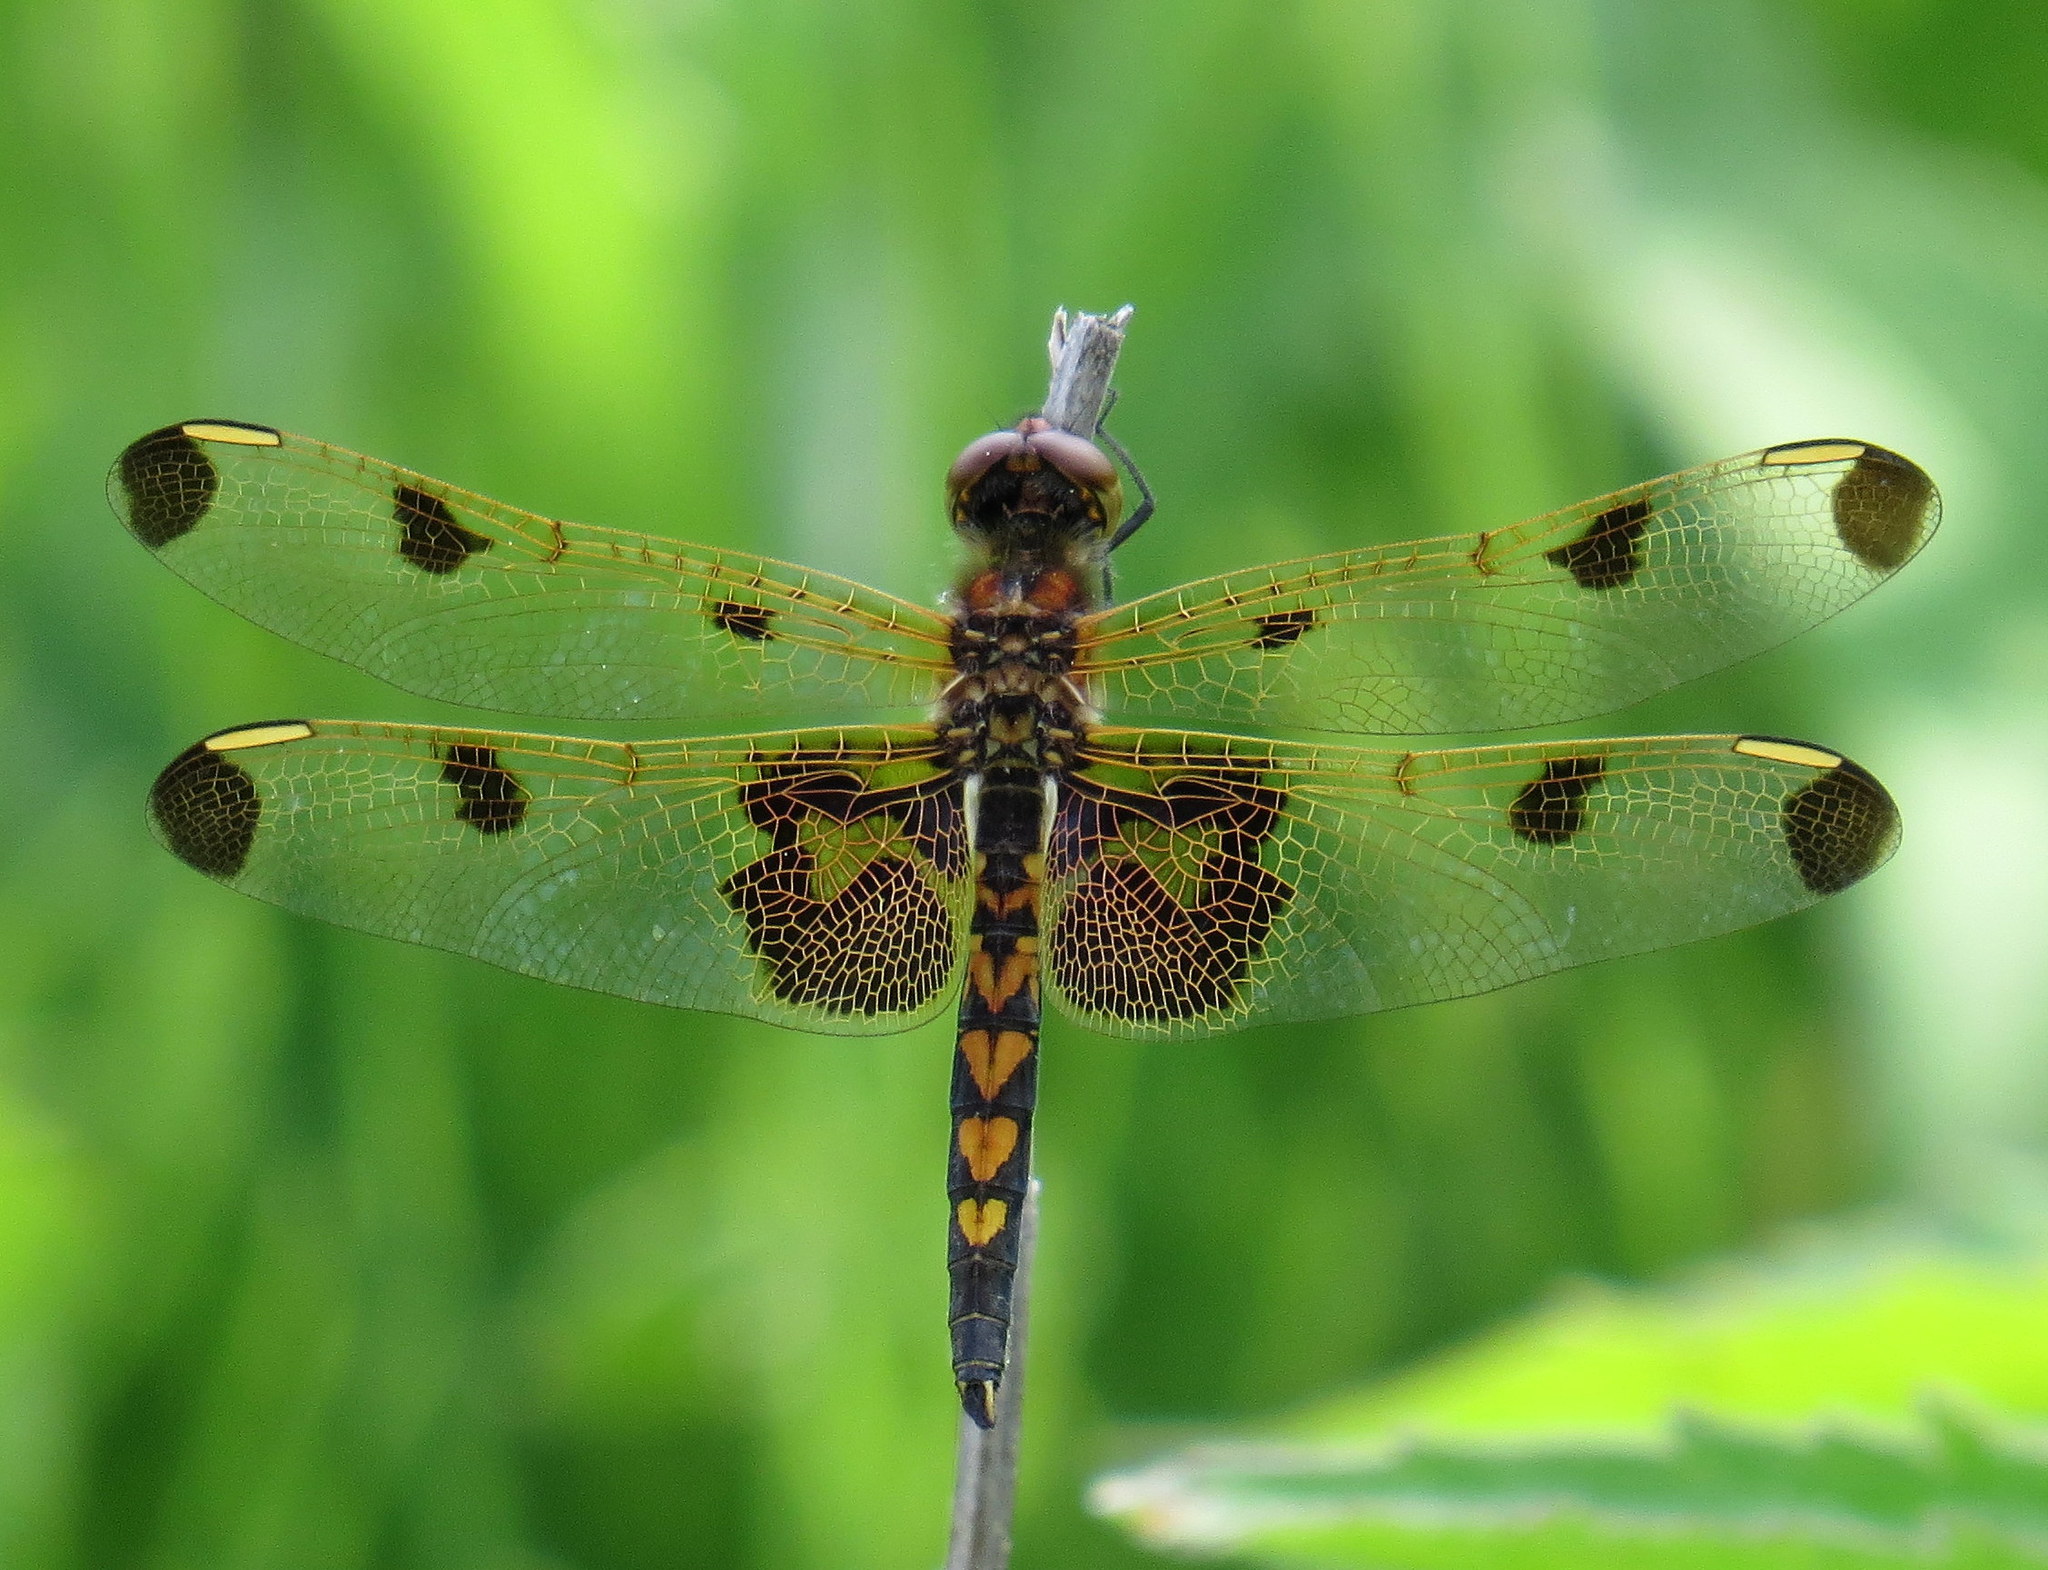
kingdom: Animalia
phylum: Arthropoda
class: Insecta
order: Odonata
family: Libellulidae
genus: Celithemis
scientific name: Celithemis elisa
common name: Calico pennant
